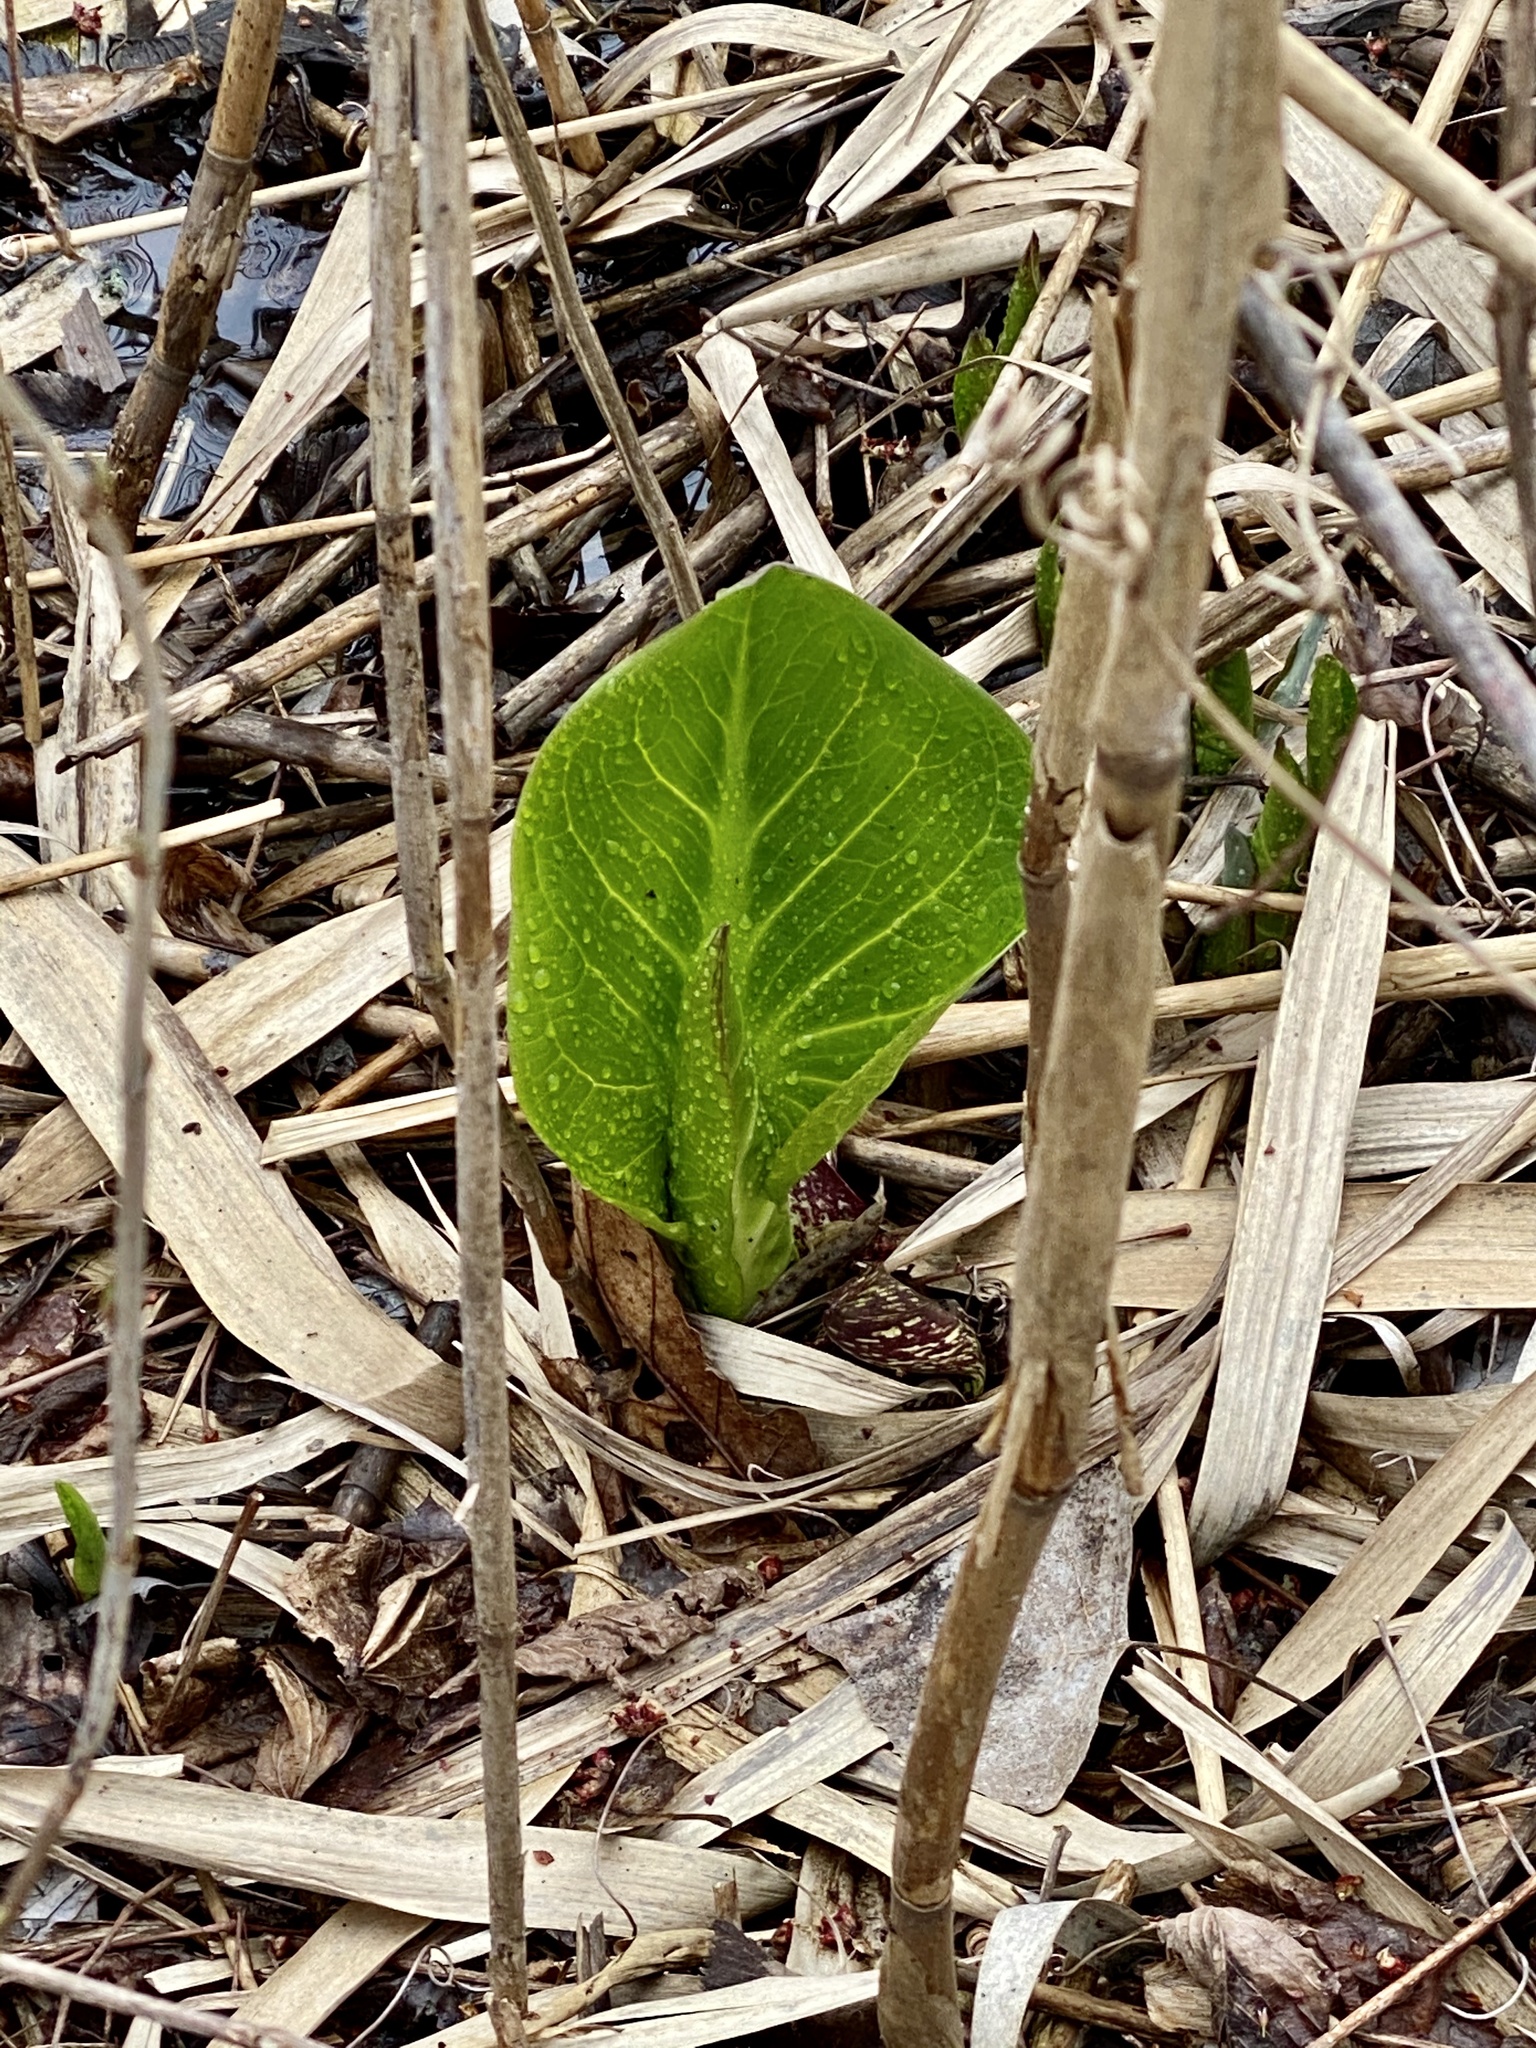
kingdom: Plantae
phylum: Tracheophyta
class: Liliopsida
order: Alismatales
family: Araceae
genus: Symplocarpus
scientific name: Symplocarpus foetidus
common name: Eastern skunk cabbage
